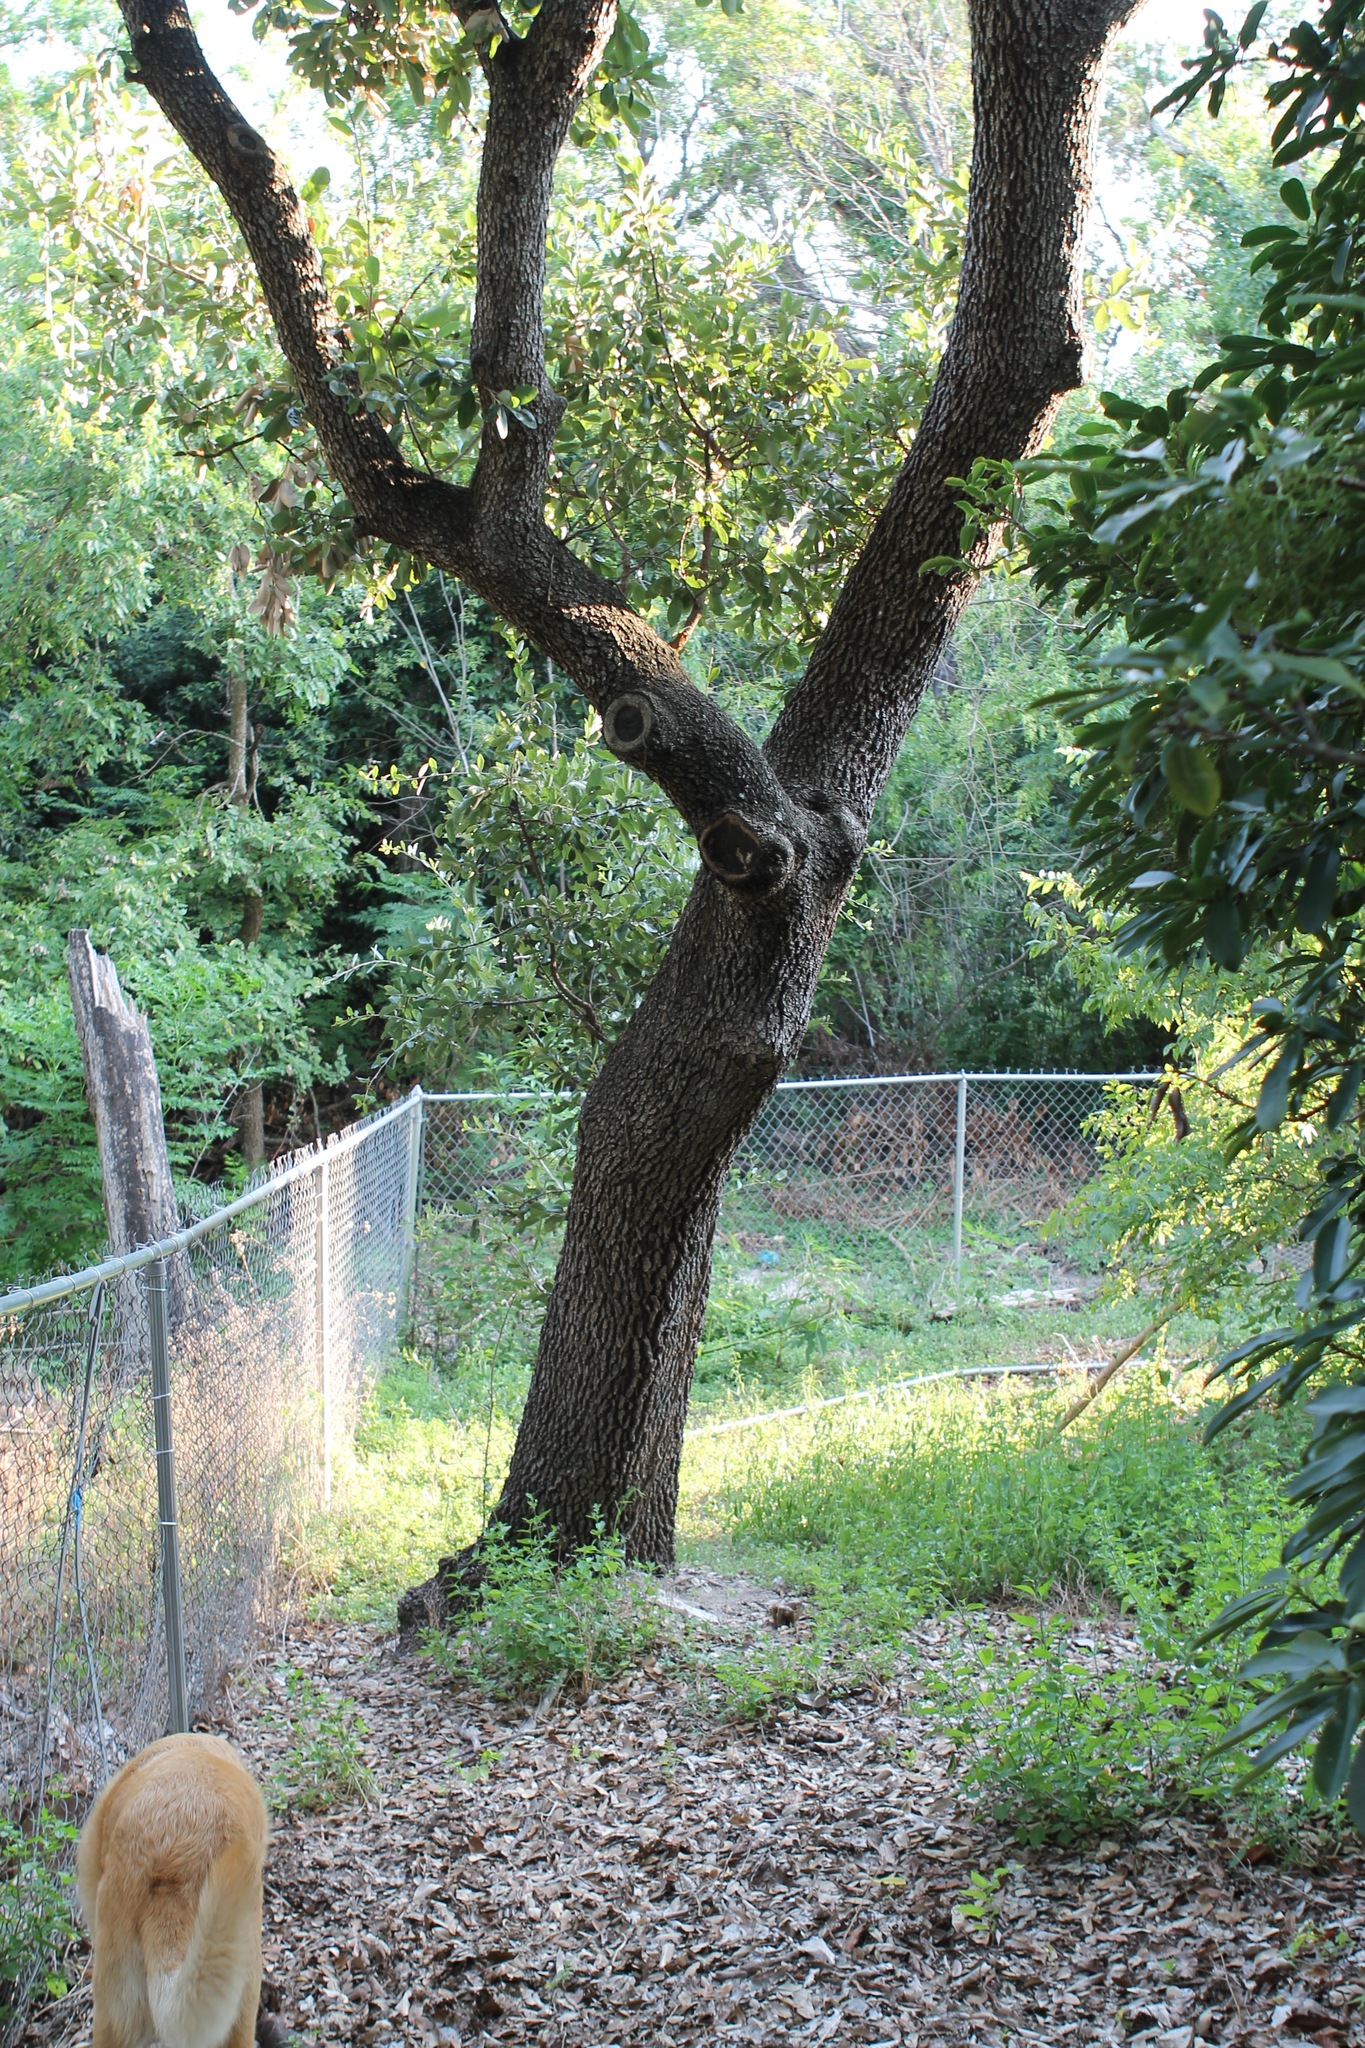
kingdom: Plantae
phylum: Tracheophyta
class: Magnoliopsida
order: Fagales
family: Fagaceae
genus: Quercus
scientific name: Quercus fusiformis
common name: Texas live oak
